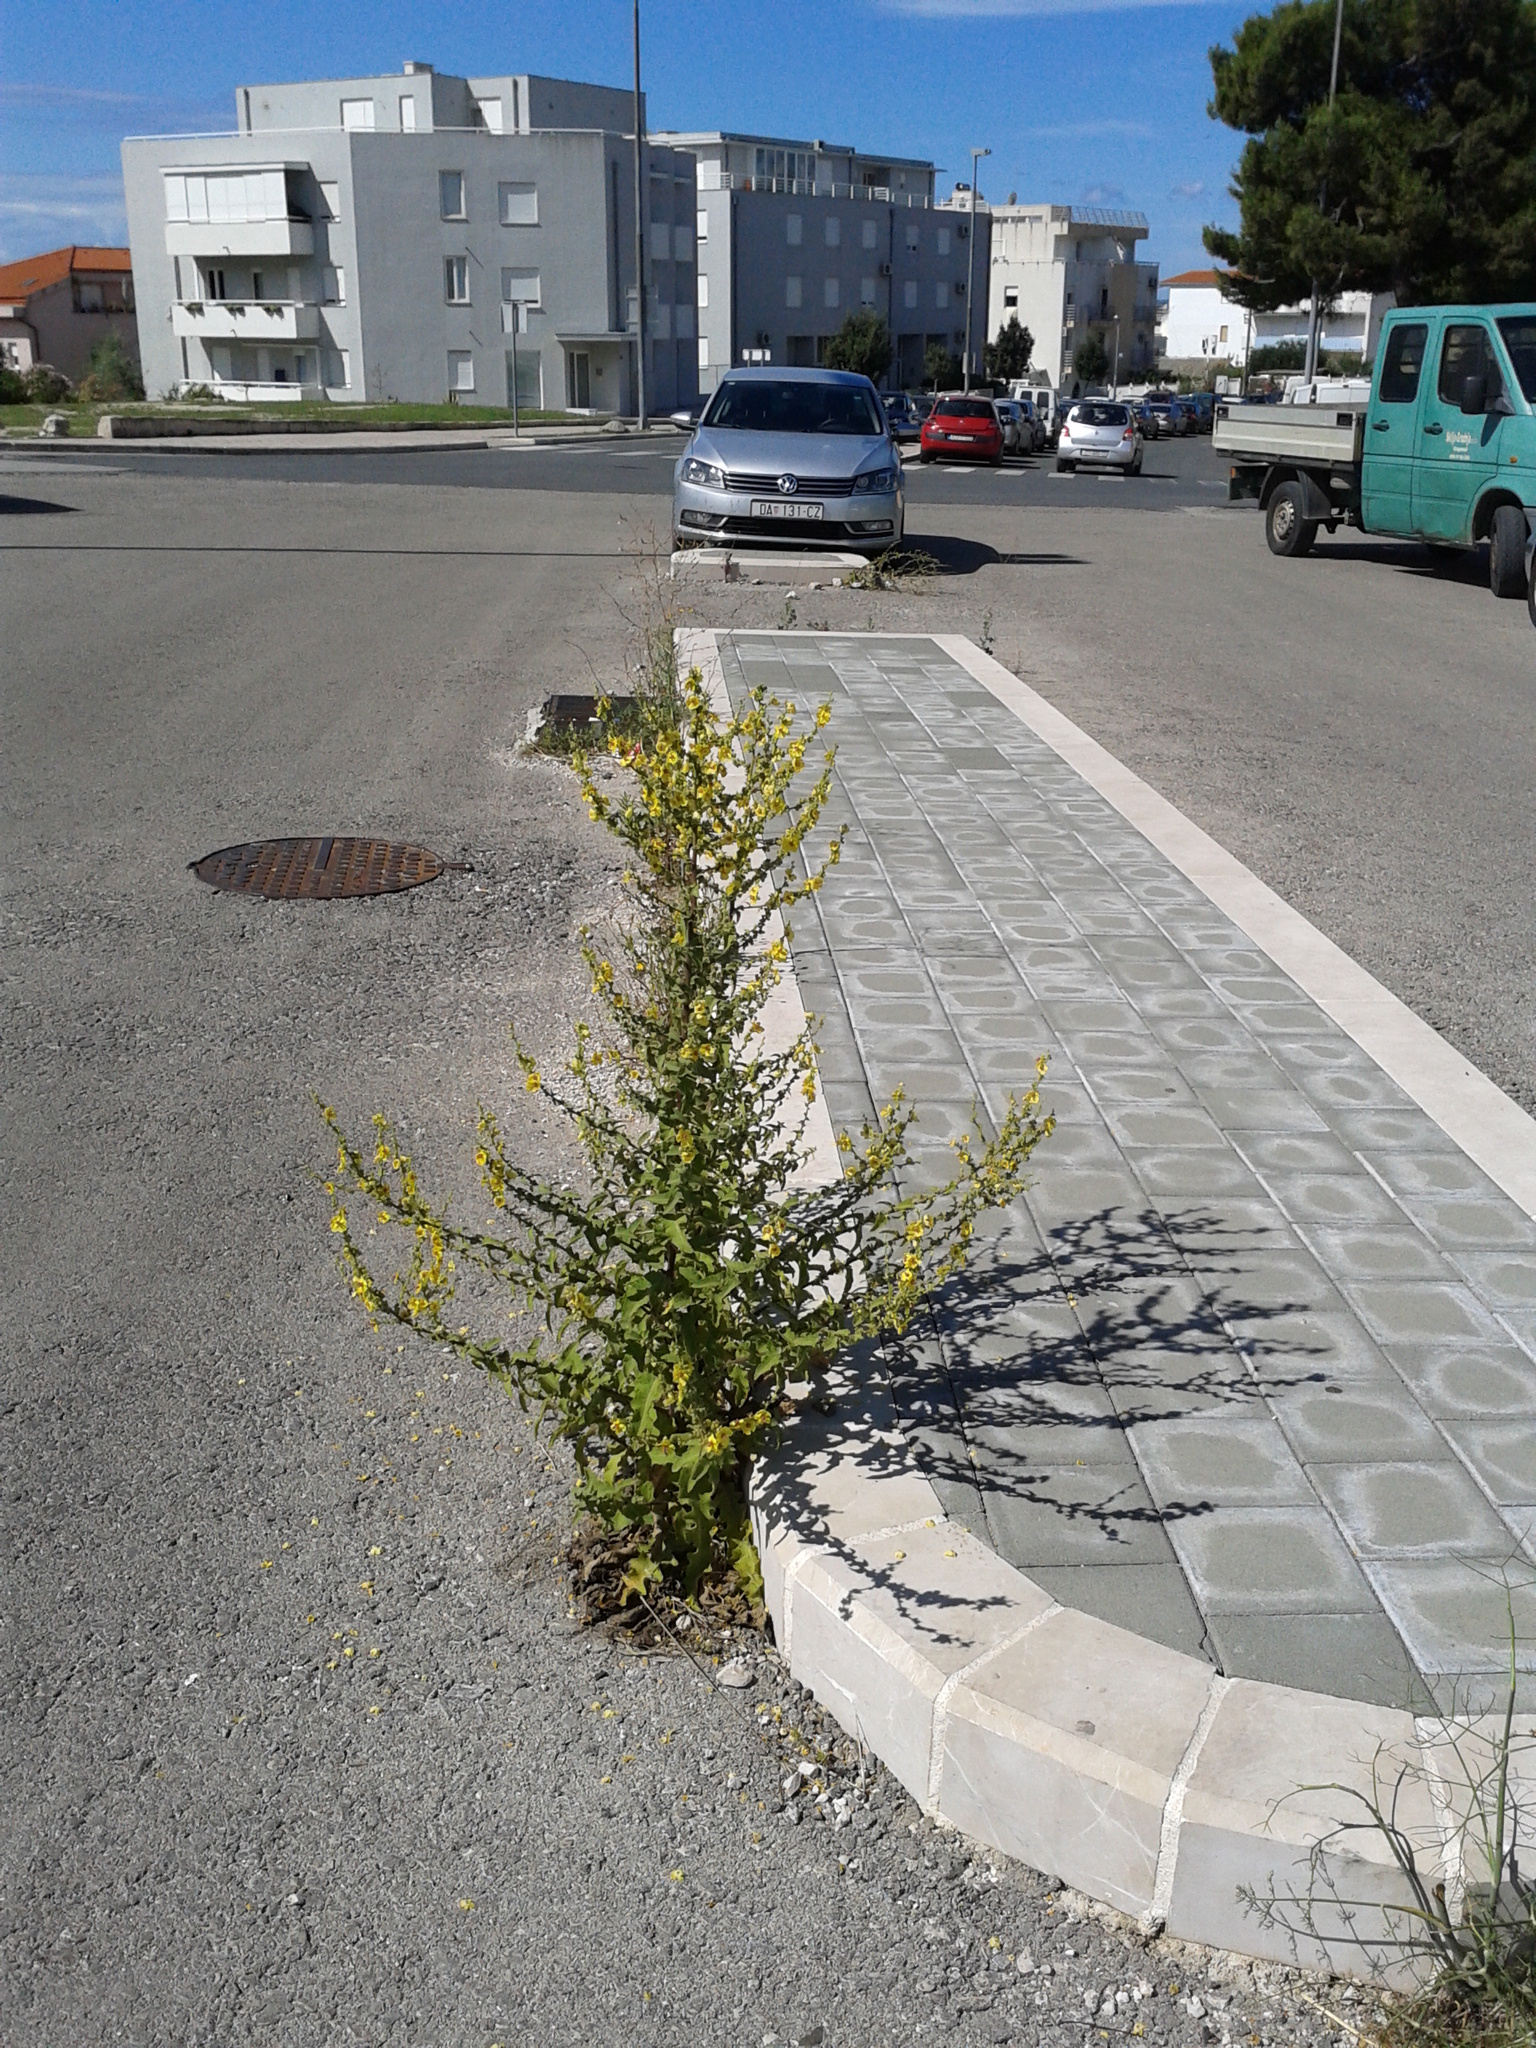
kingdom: Plantae
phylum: Tracheophyta
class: Magnoliopsida
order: Lamiales
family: Scrophulariaceae
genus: Verbascum
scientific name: Verbascum sinuatum
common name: Wavyleaf mullein
